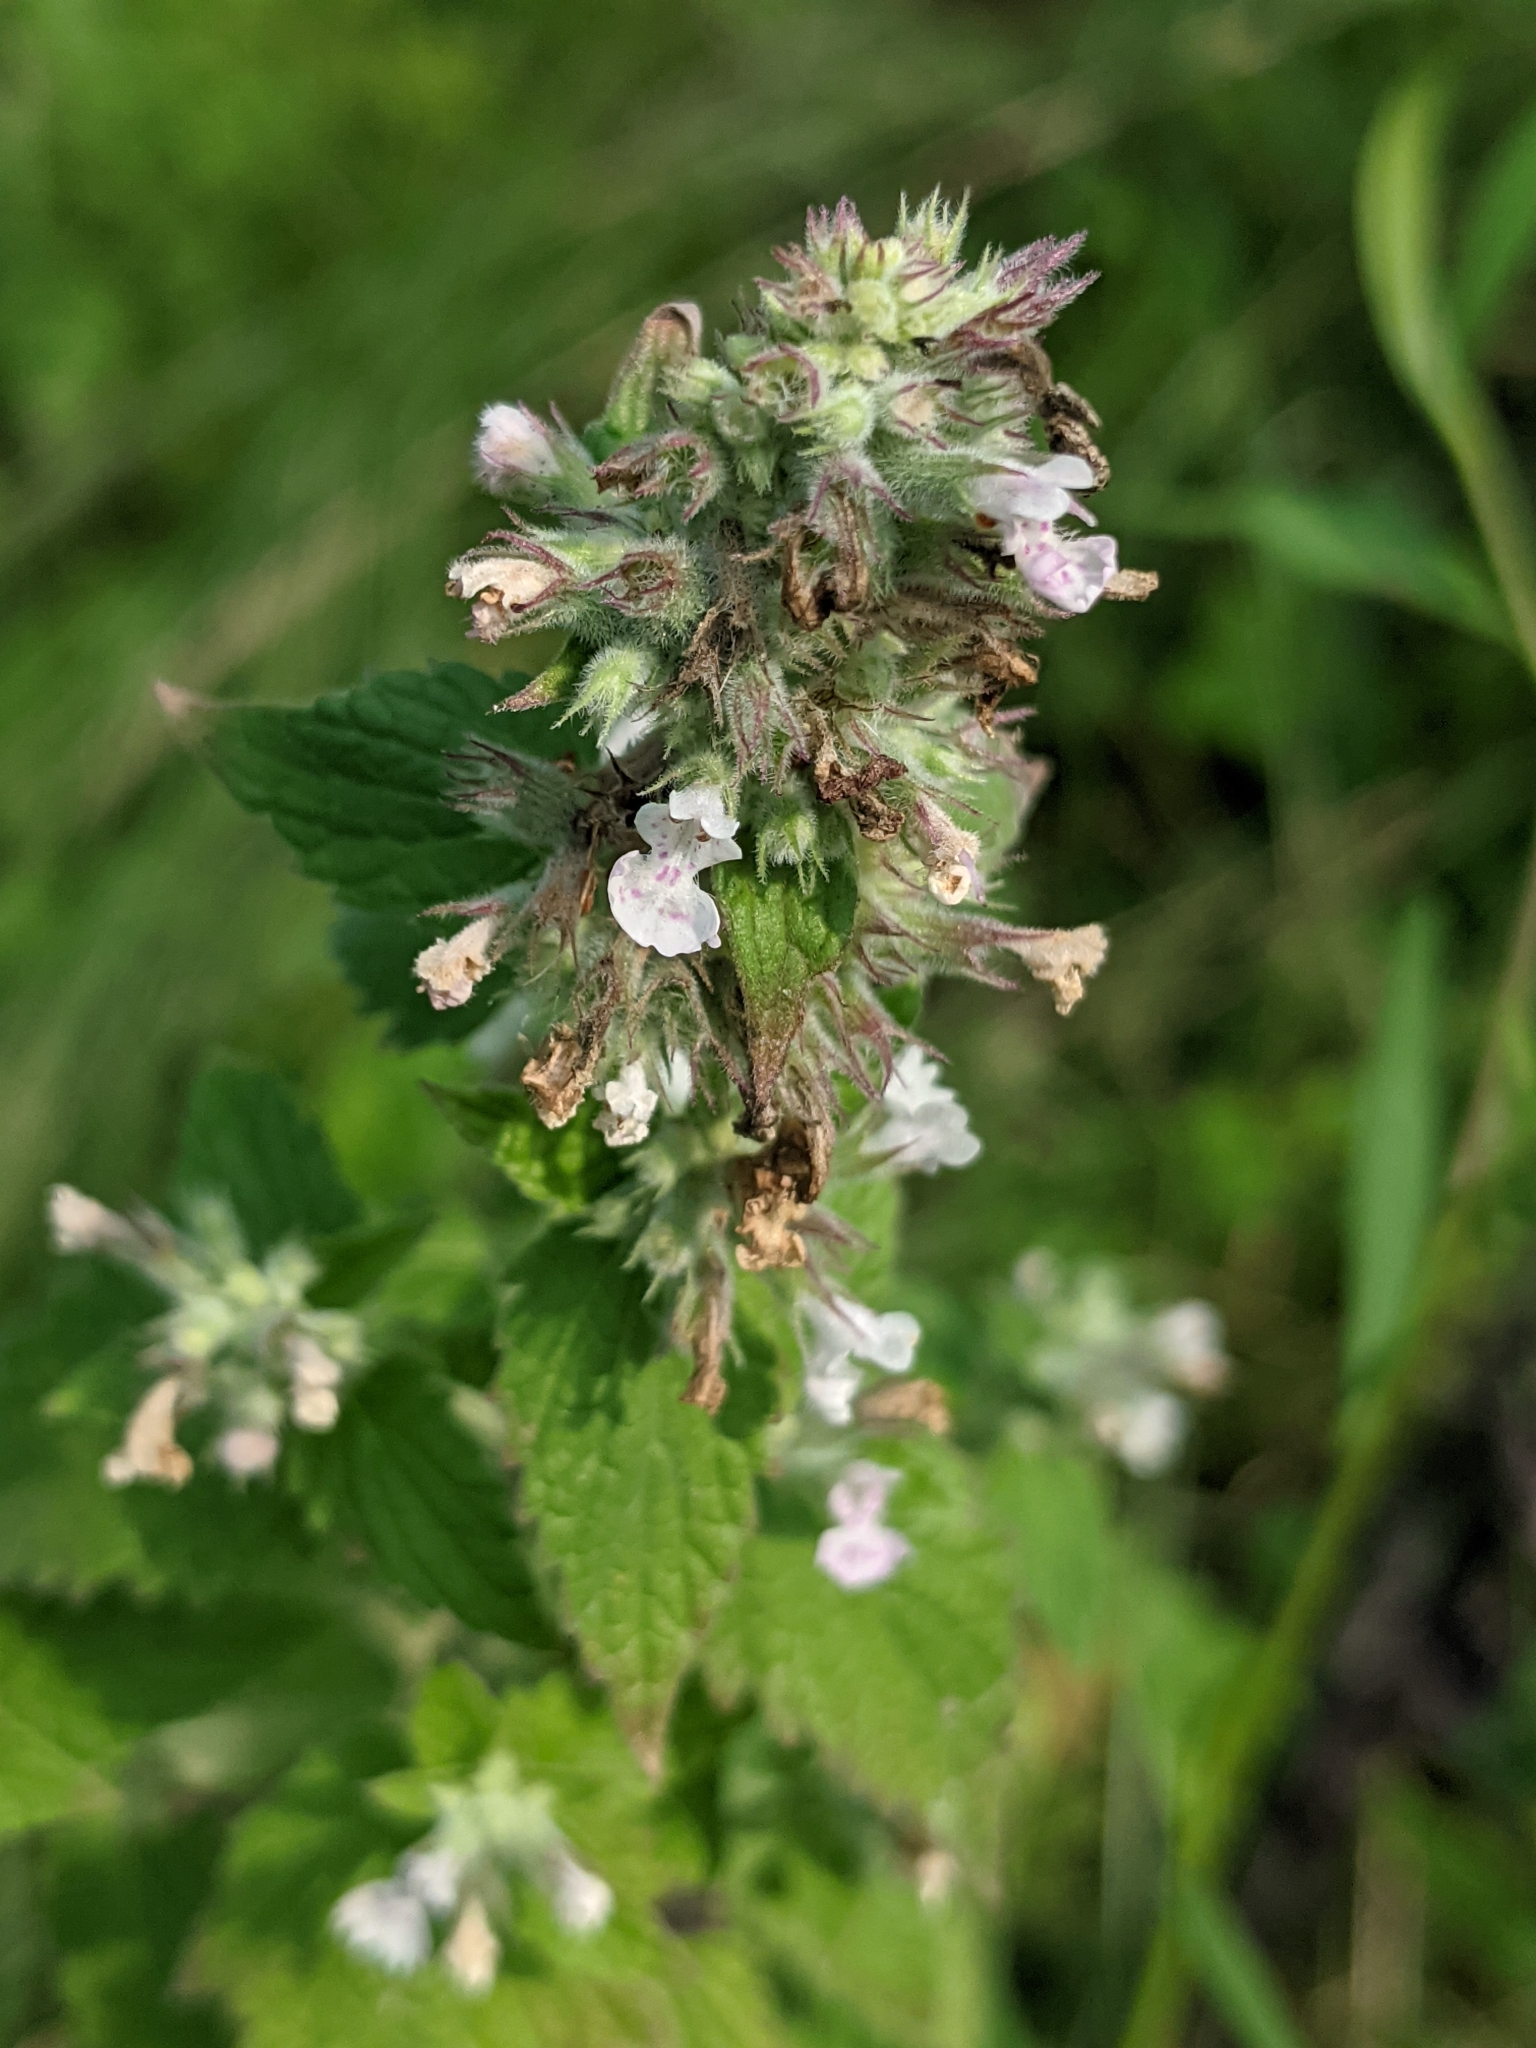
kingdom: Plantae
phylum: Tracheophyta
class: Magnoliopsida
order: Lamiales
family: Lamiaceae
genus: Nepeta
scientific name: Nepeta cataria
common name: Catnip
